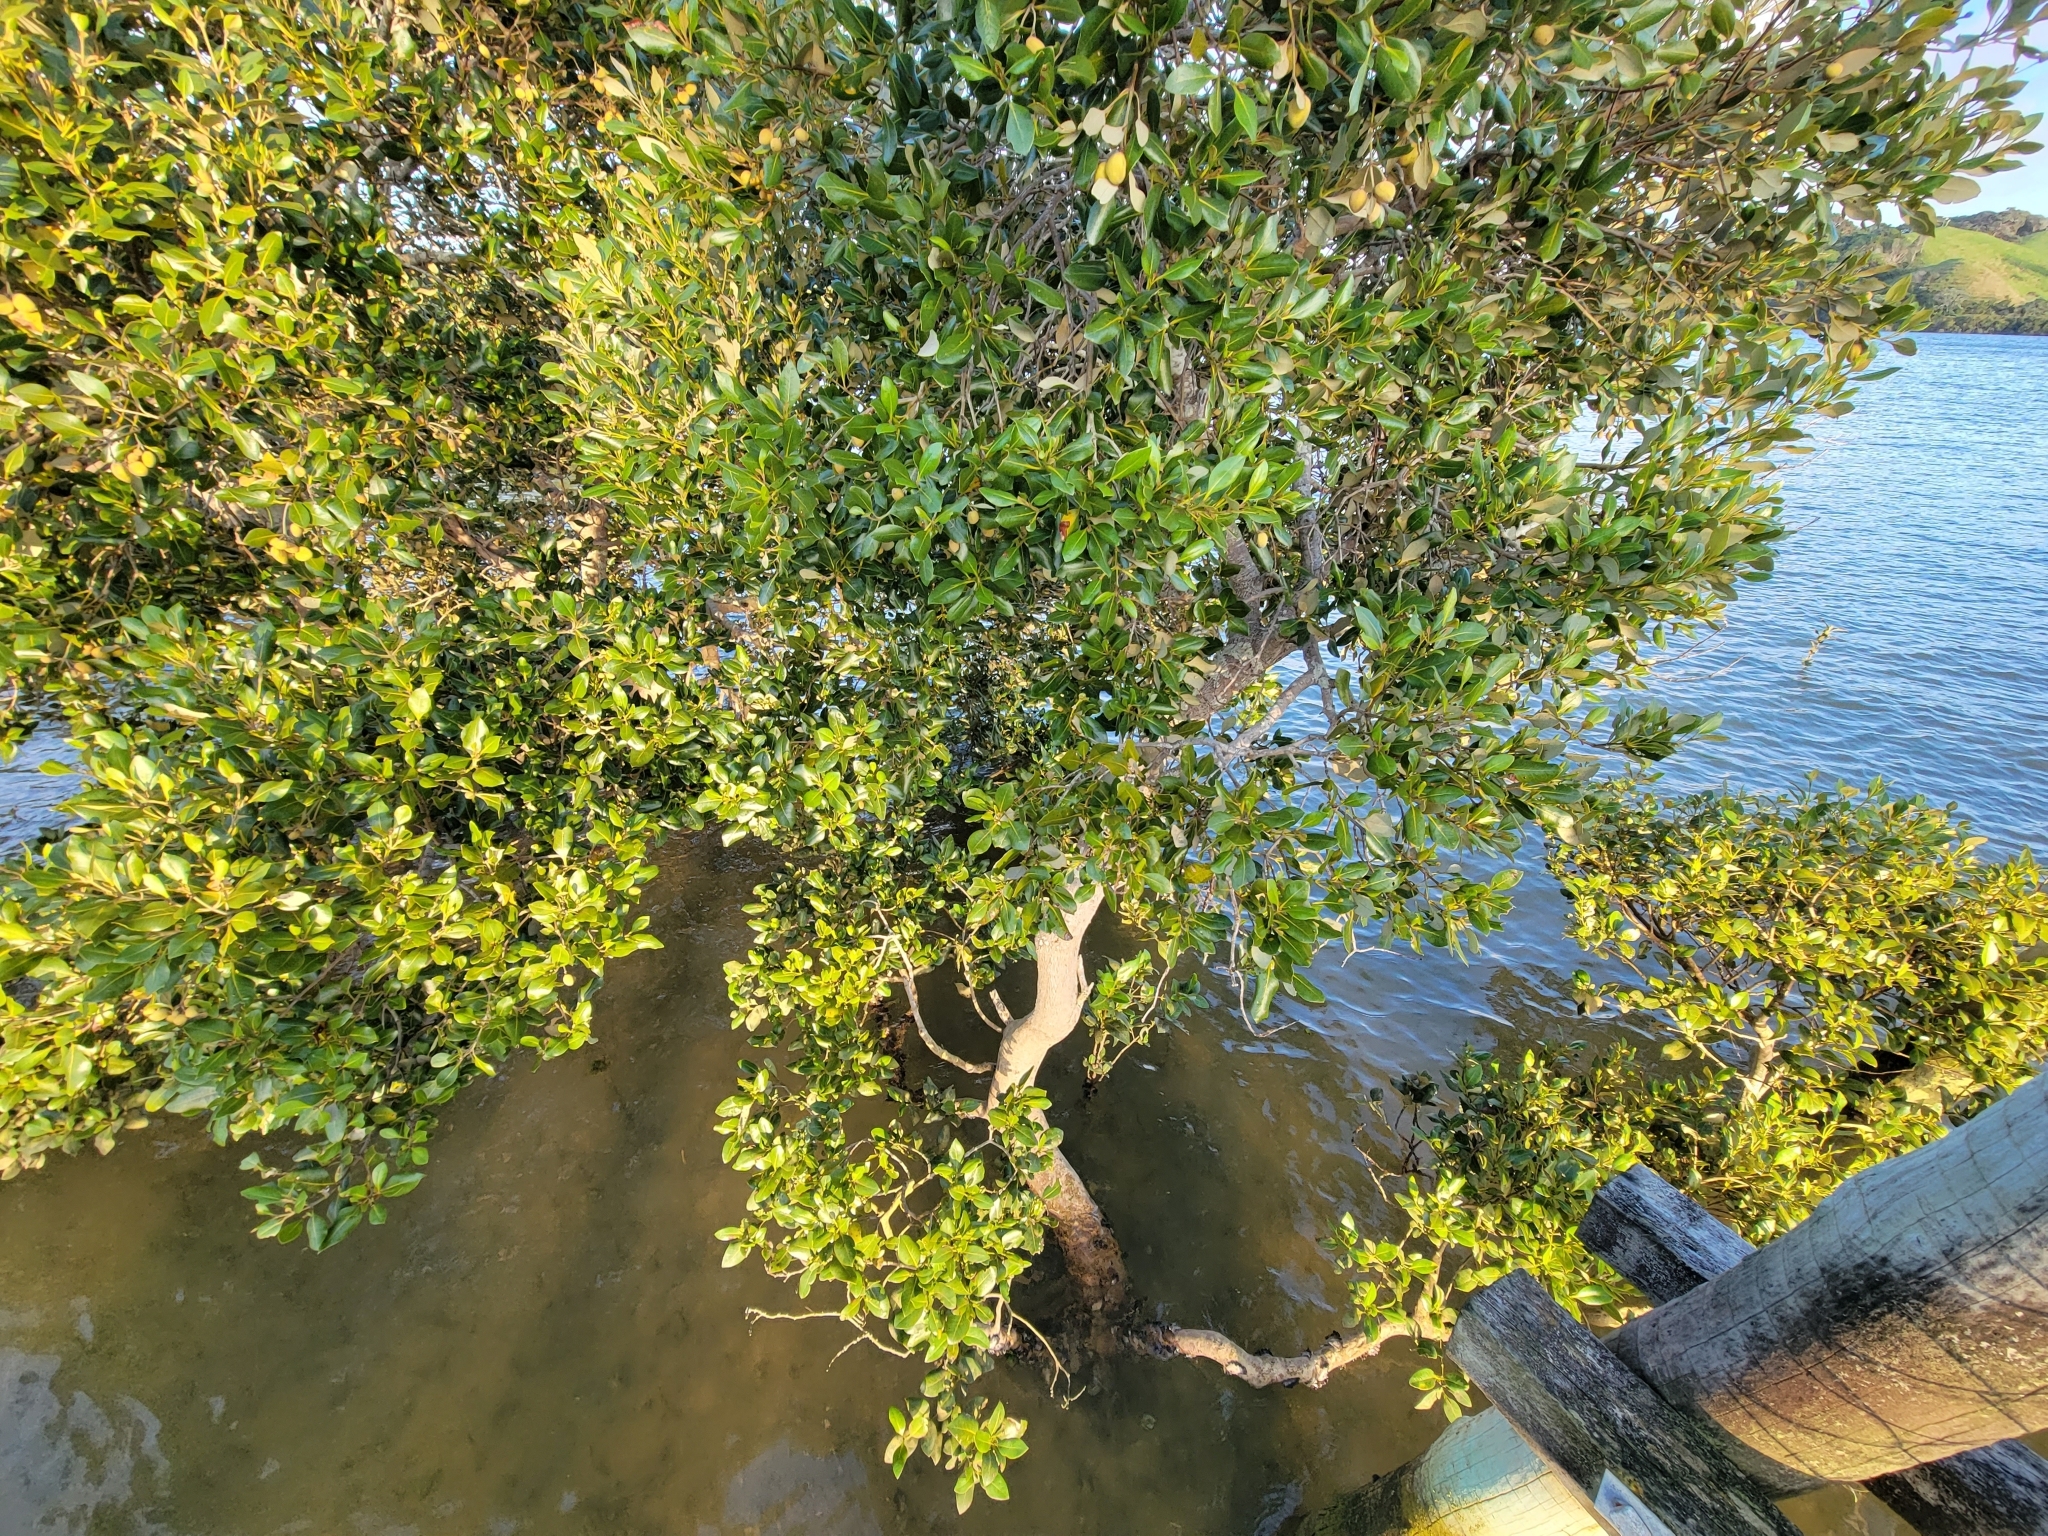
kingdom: Plantae
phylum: Tracheophyta
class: Magnoliopsida
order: Lamiales
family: Acanthaceae
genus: Avicennia
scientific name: Avicennia marina
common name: Gray mangrove
